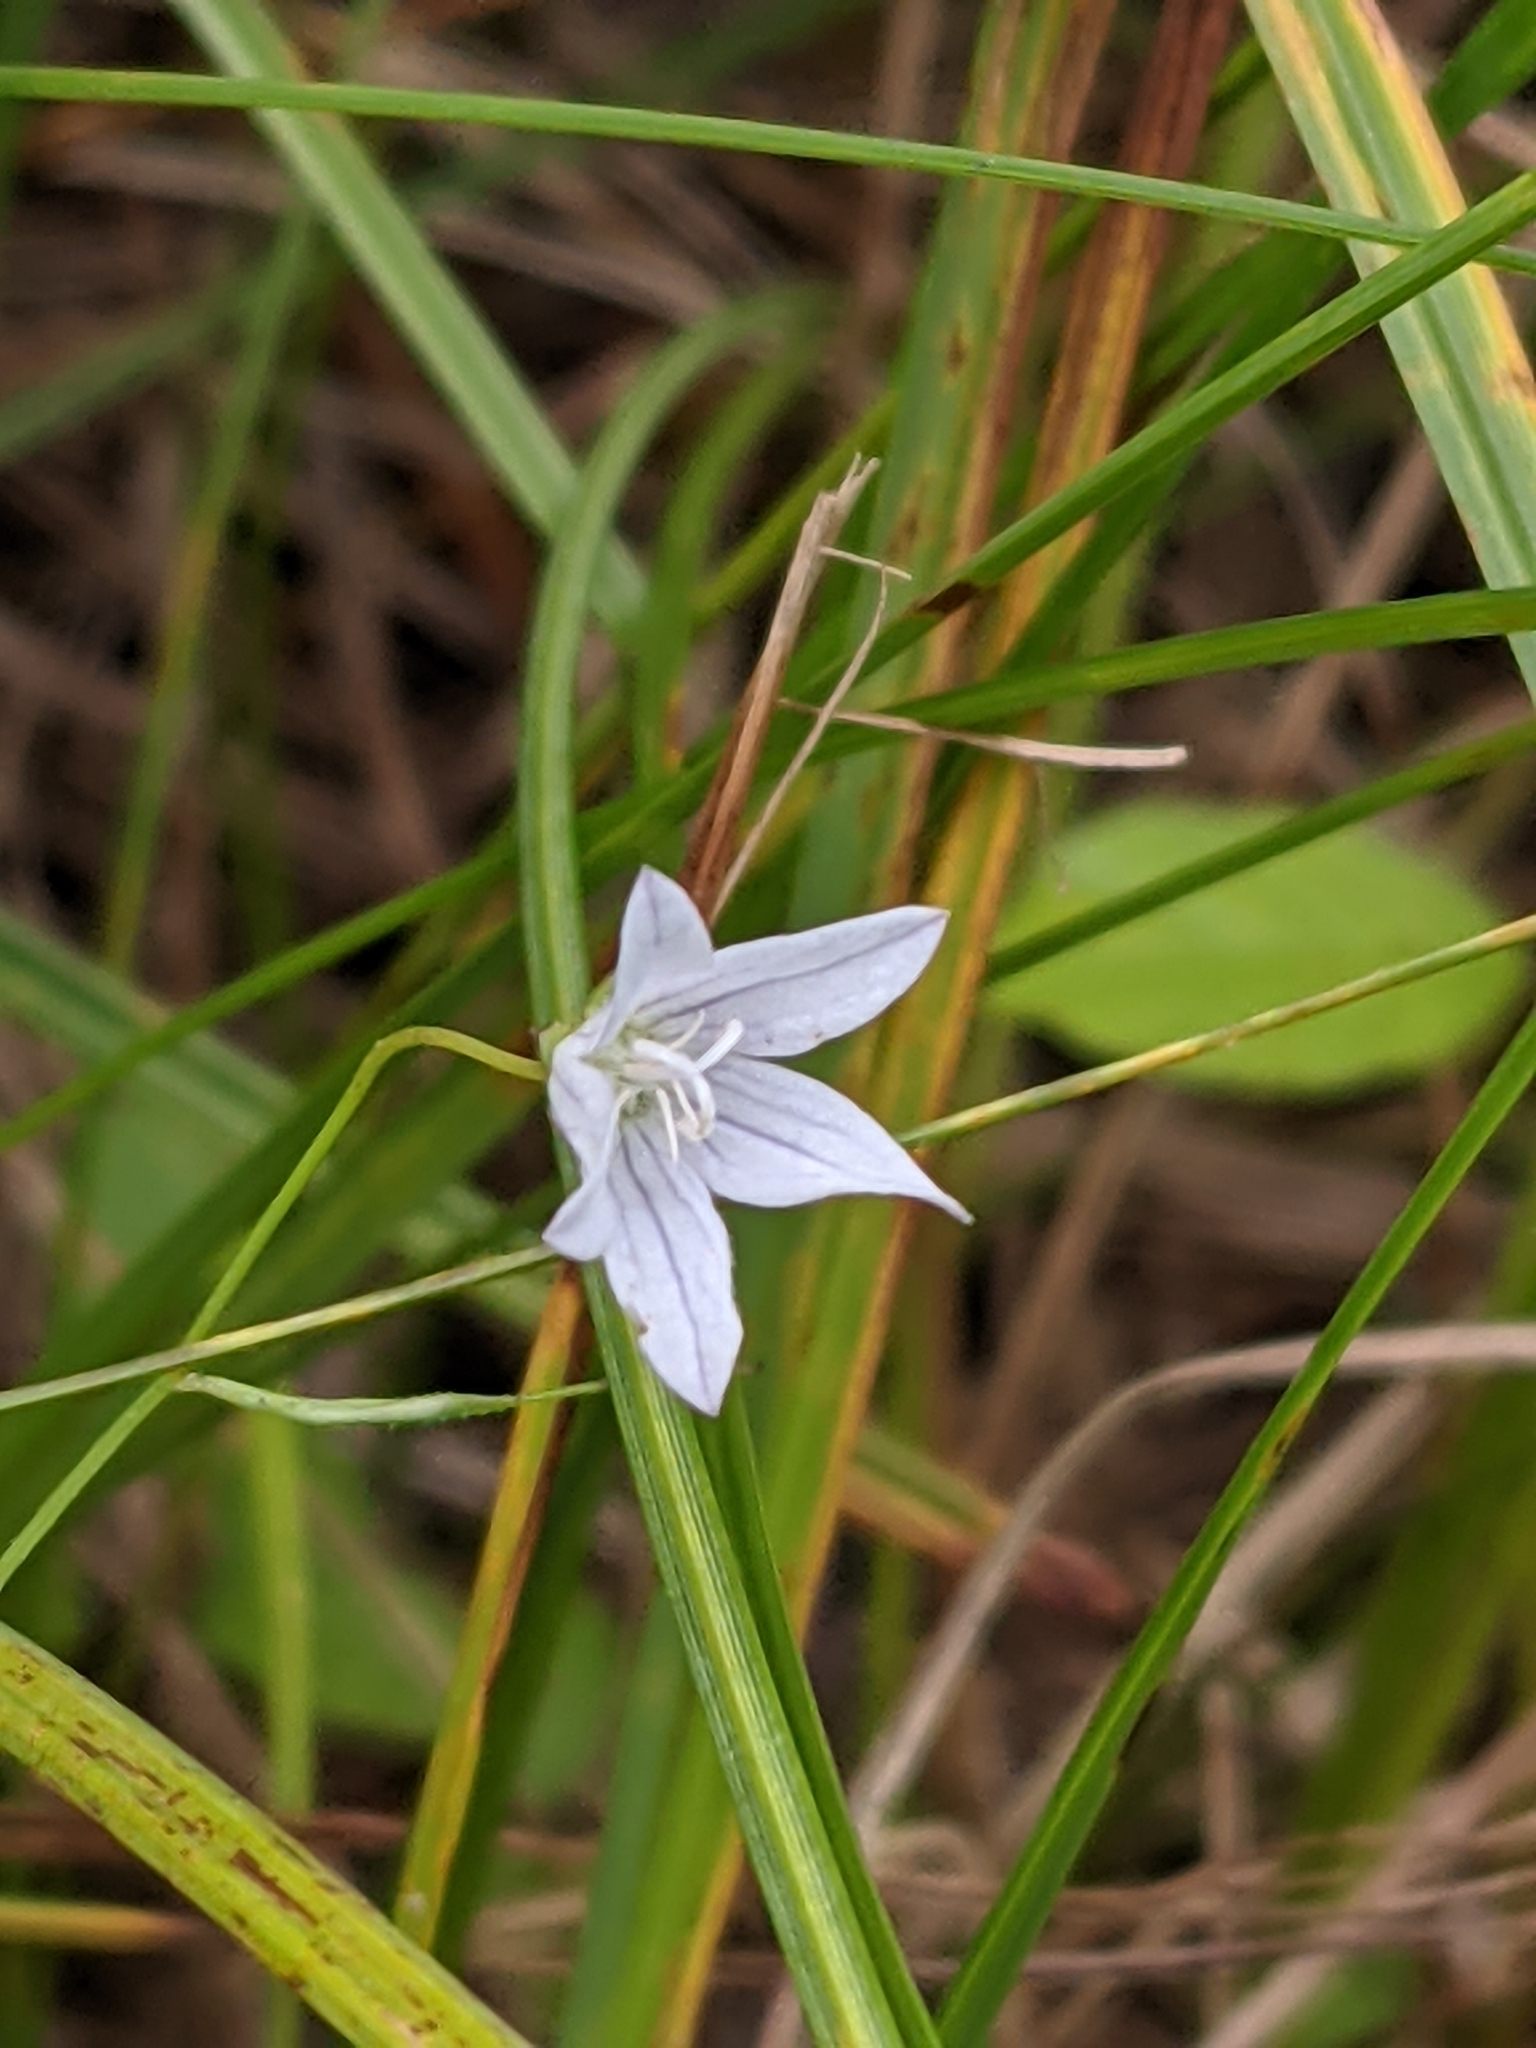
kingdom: Plantae
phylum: Tracheophyta
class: Magnoliopsida
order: Asterales
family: Campanulaceae
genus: Palustricodon
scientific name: Palustricodon aparinoides
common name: Bedstraw bellflower
